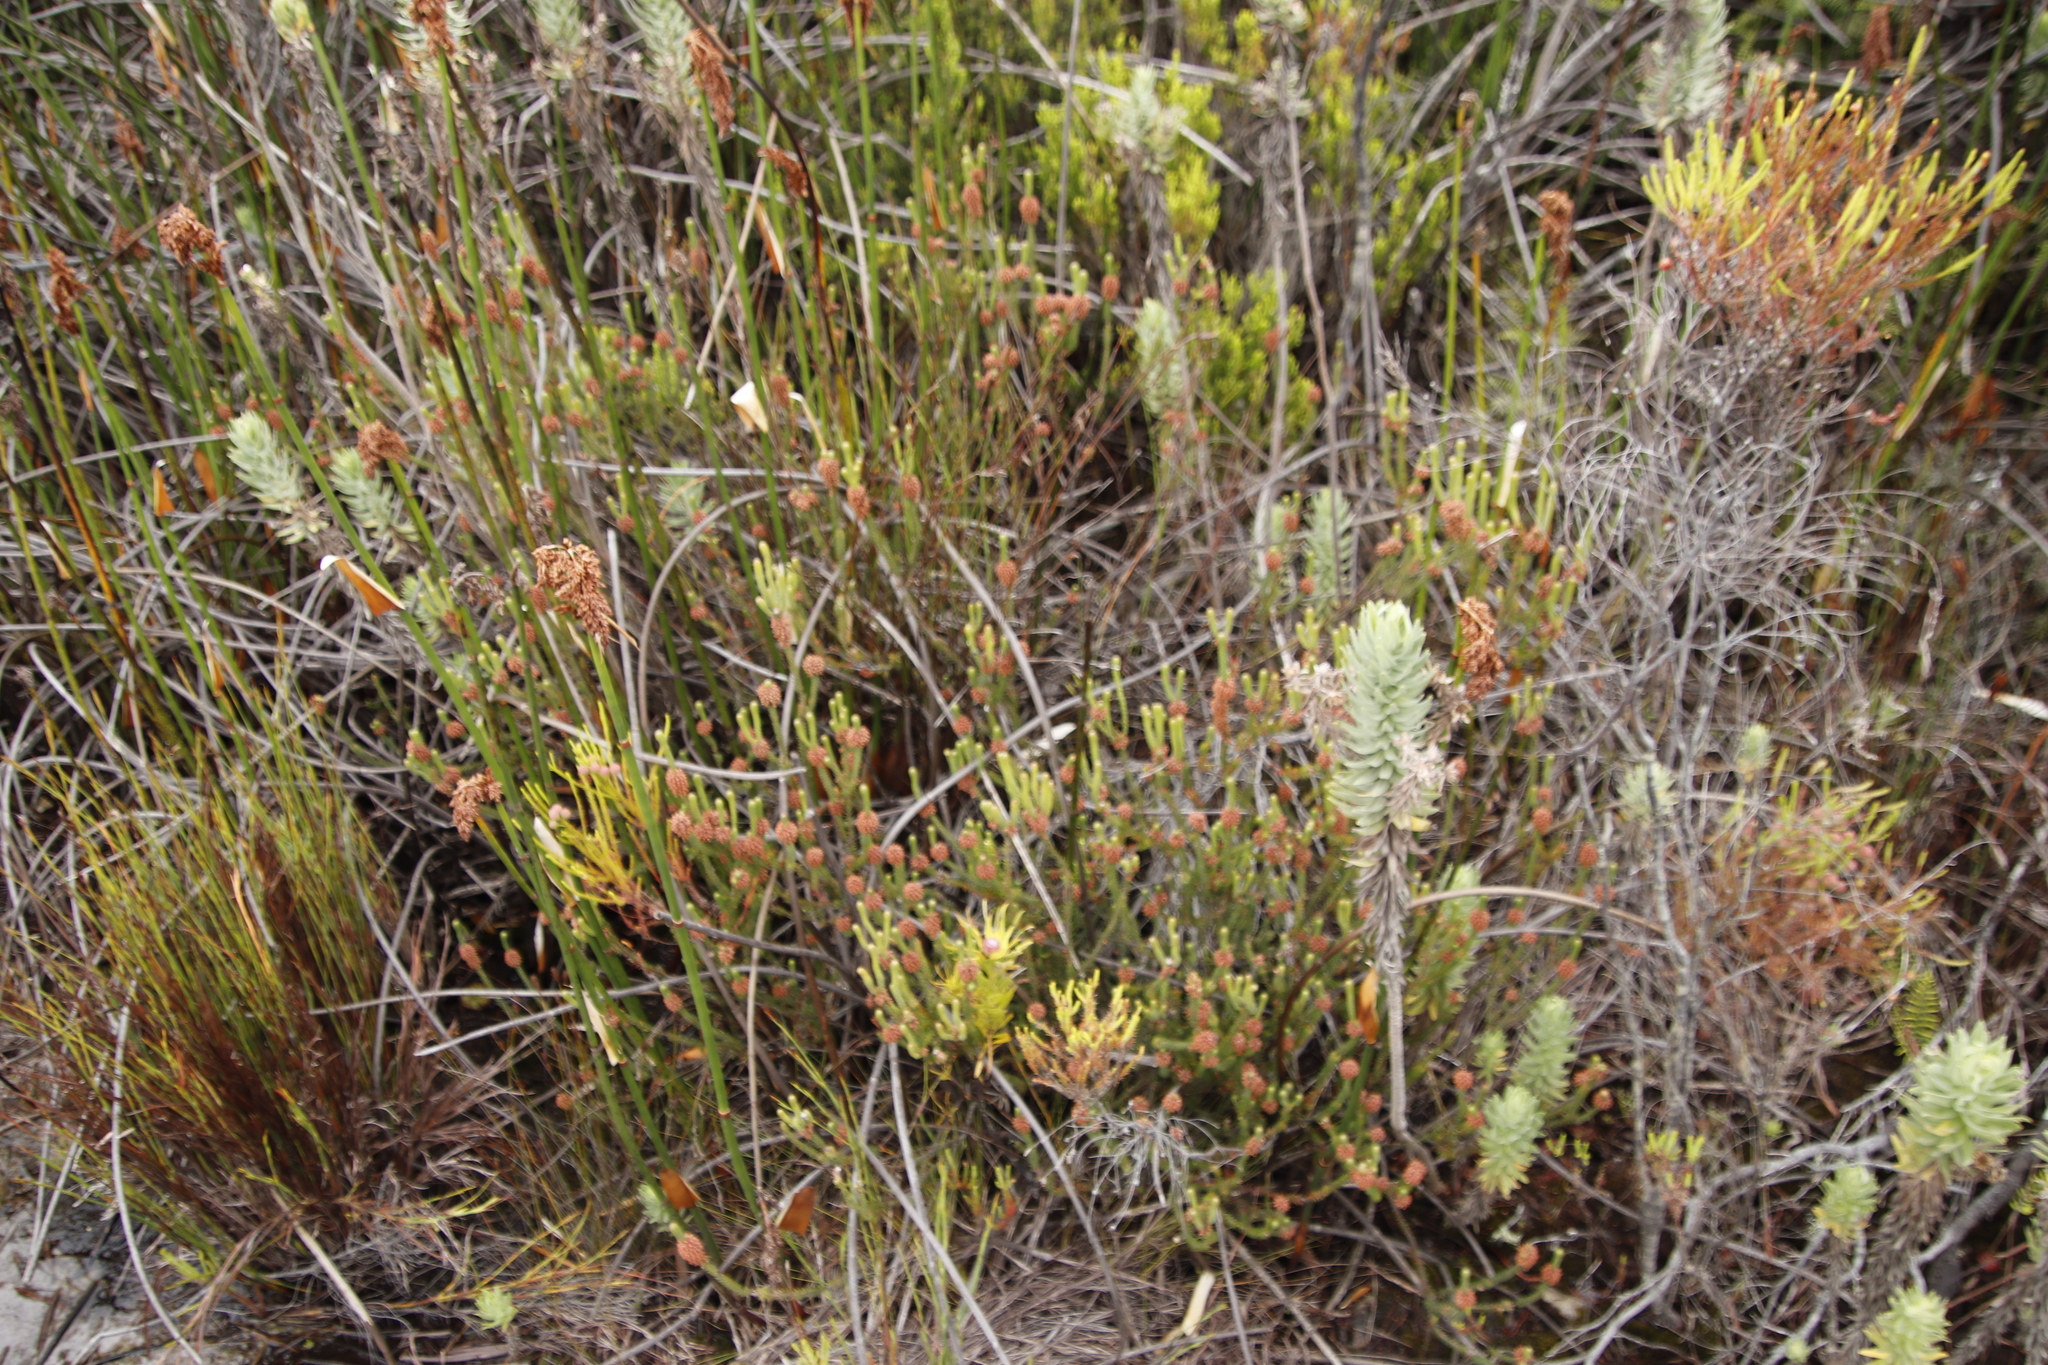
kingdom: Plantae
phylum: Tracheophyta
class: Magnoliopsida
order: Ericales
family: Ericaceae
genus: Erica
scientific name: Erica empetrina
